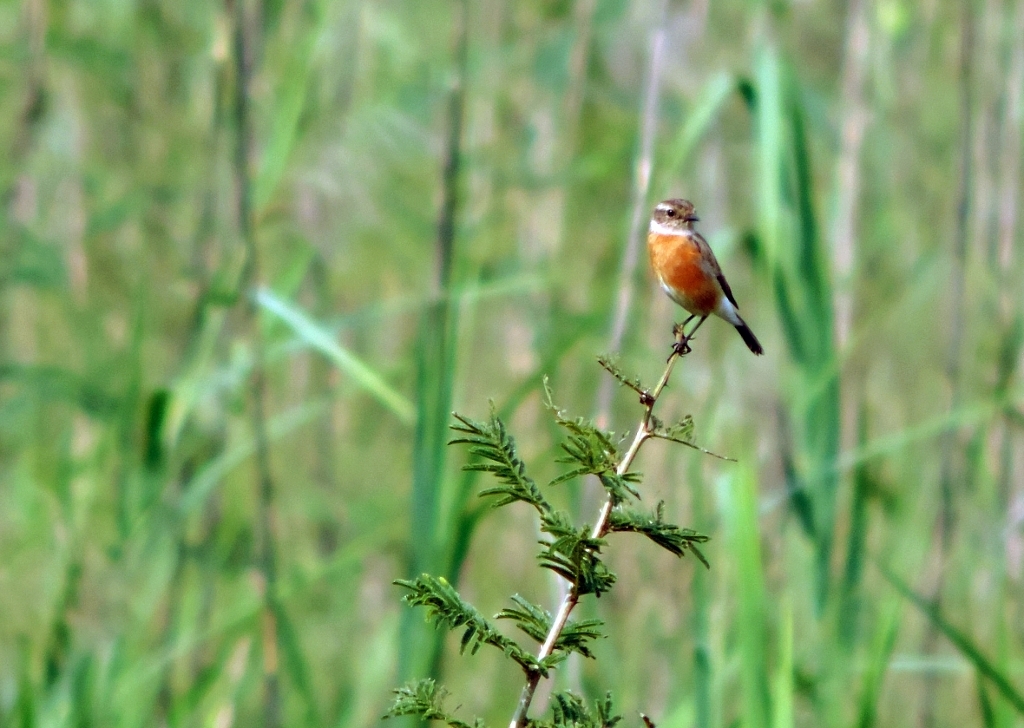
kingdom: Animalia
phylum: Chordata
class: Aves
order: Passeriformes
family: Muscicapidae
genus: Saxicola
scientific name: Saxicola torquatus
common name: African stonechat
